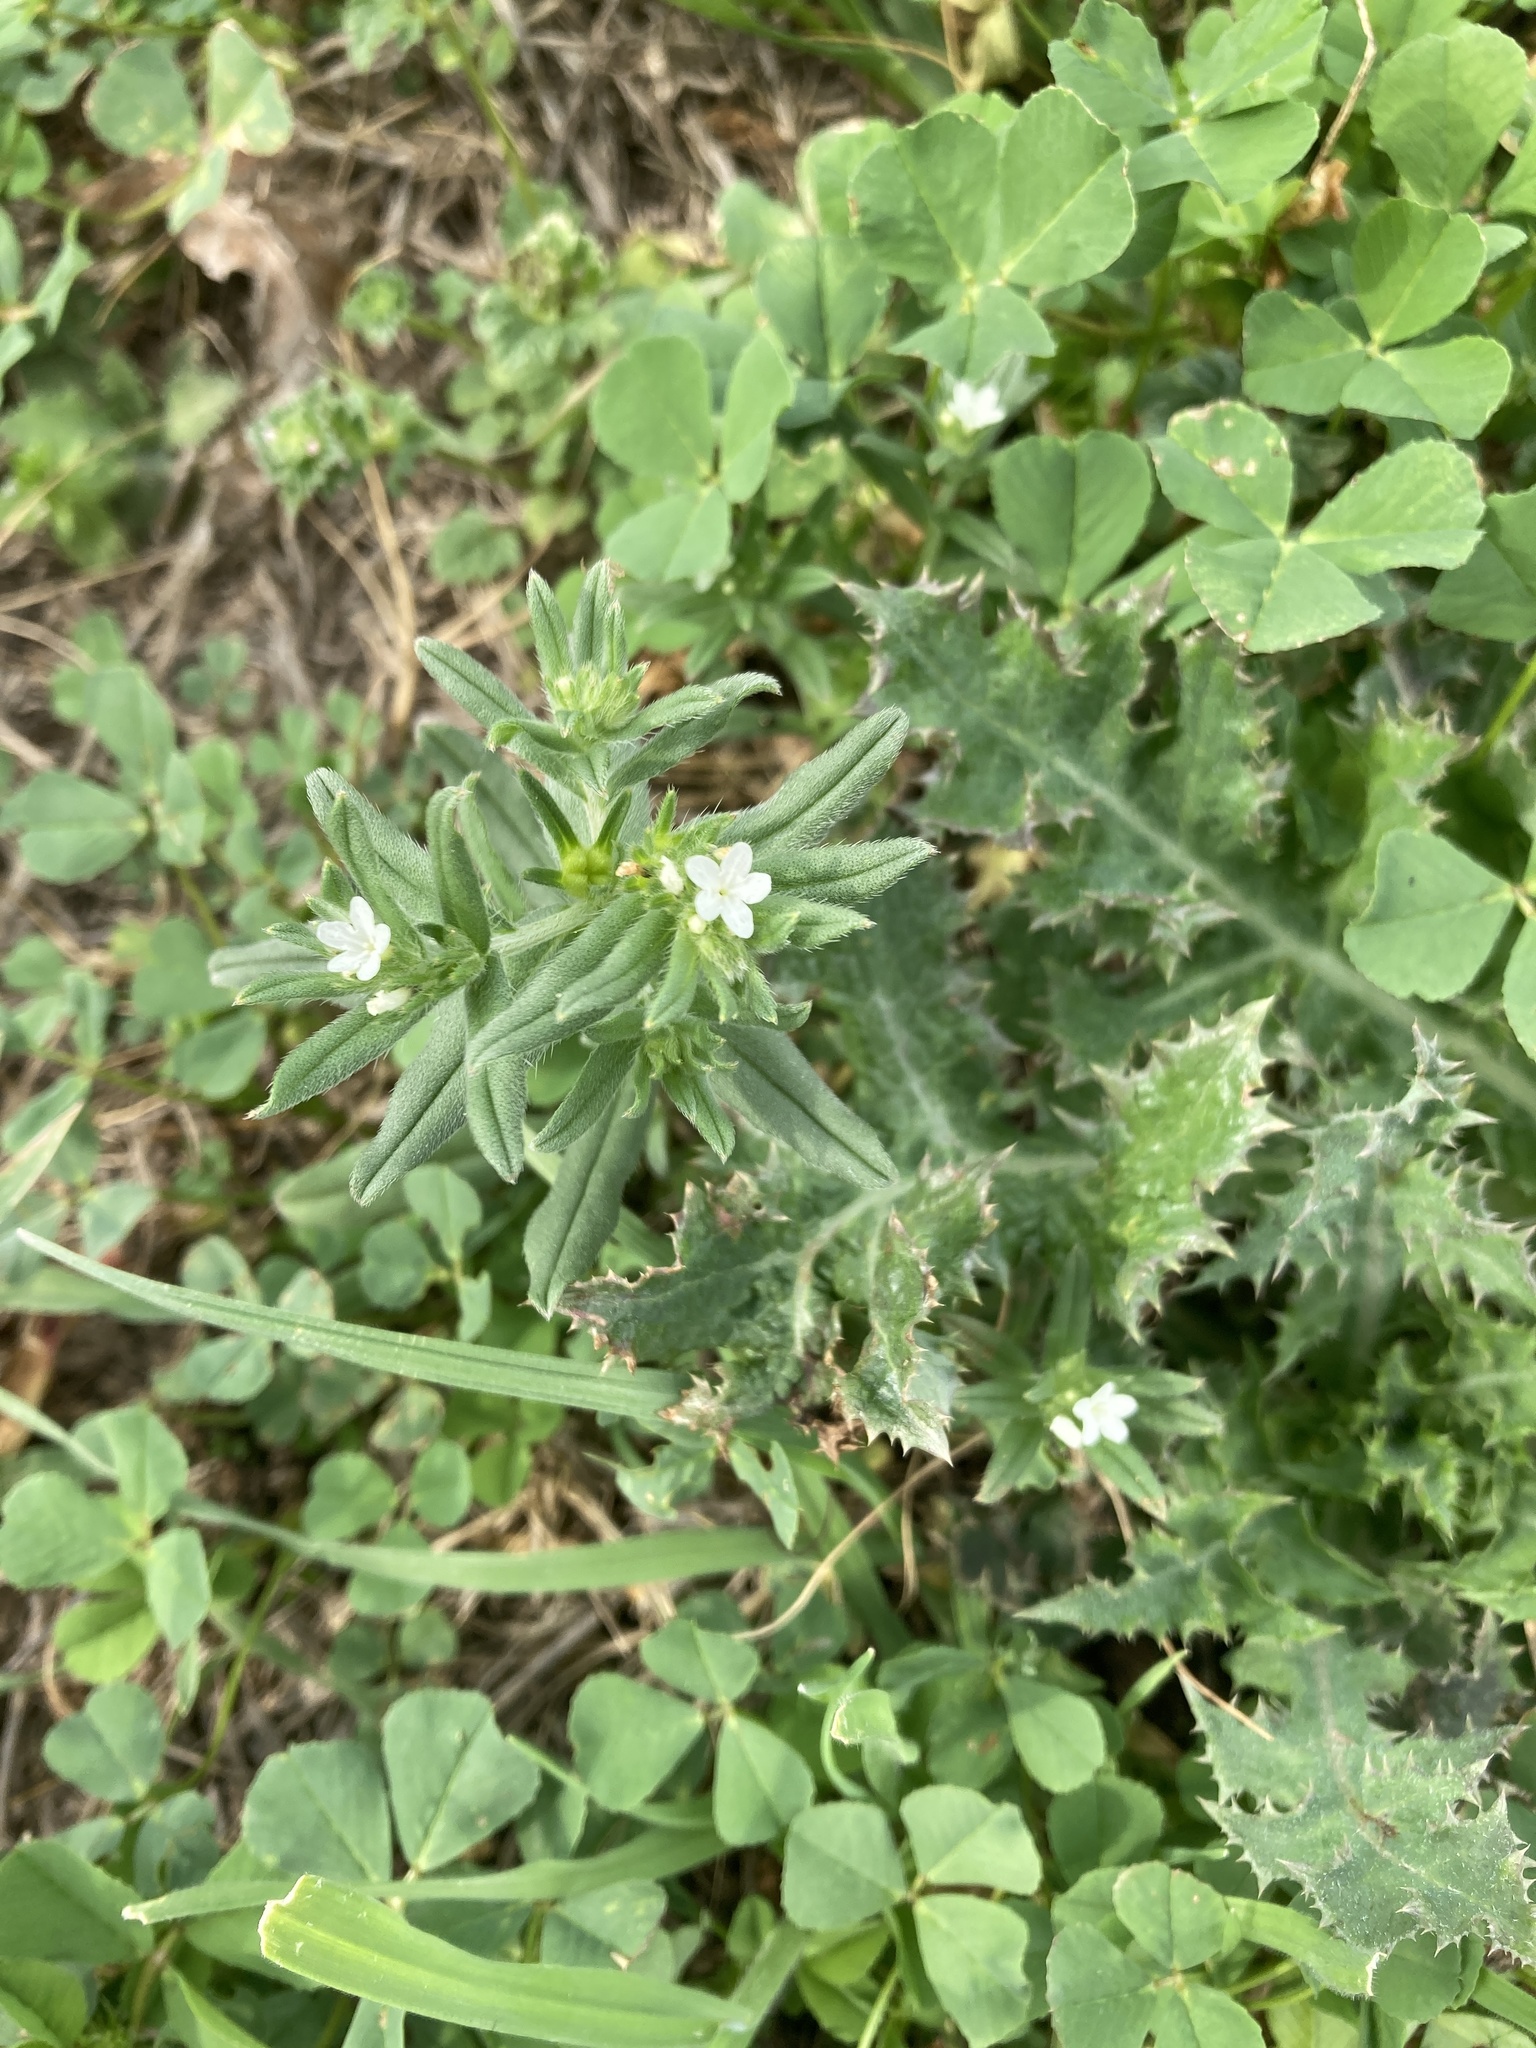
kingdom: Plantae
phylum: Tracheophyta
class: Magnoliopsida
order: Boraginales
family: Boraginaceae
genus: Buglossoides
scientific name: Buglossoides arvensis
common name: Corn gromwell
